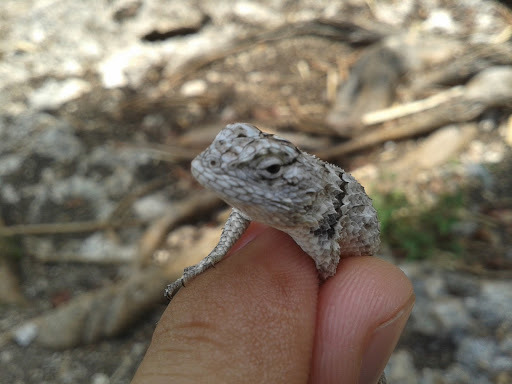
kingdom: Animalia
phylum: Chordata
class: Squamata
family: Phrynosomatidae
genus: Sceloporus
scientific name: Sceloporus lundelli
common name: Lundell's spiny lizard
